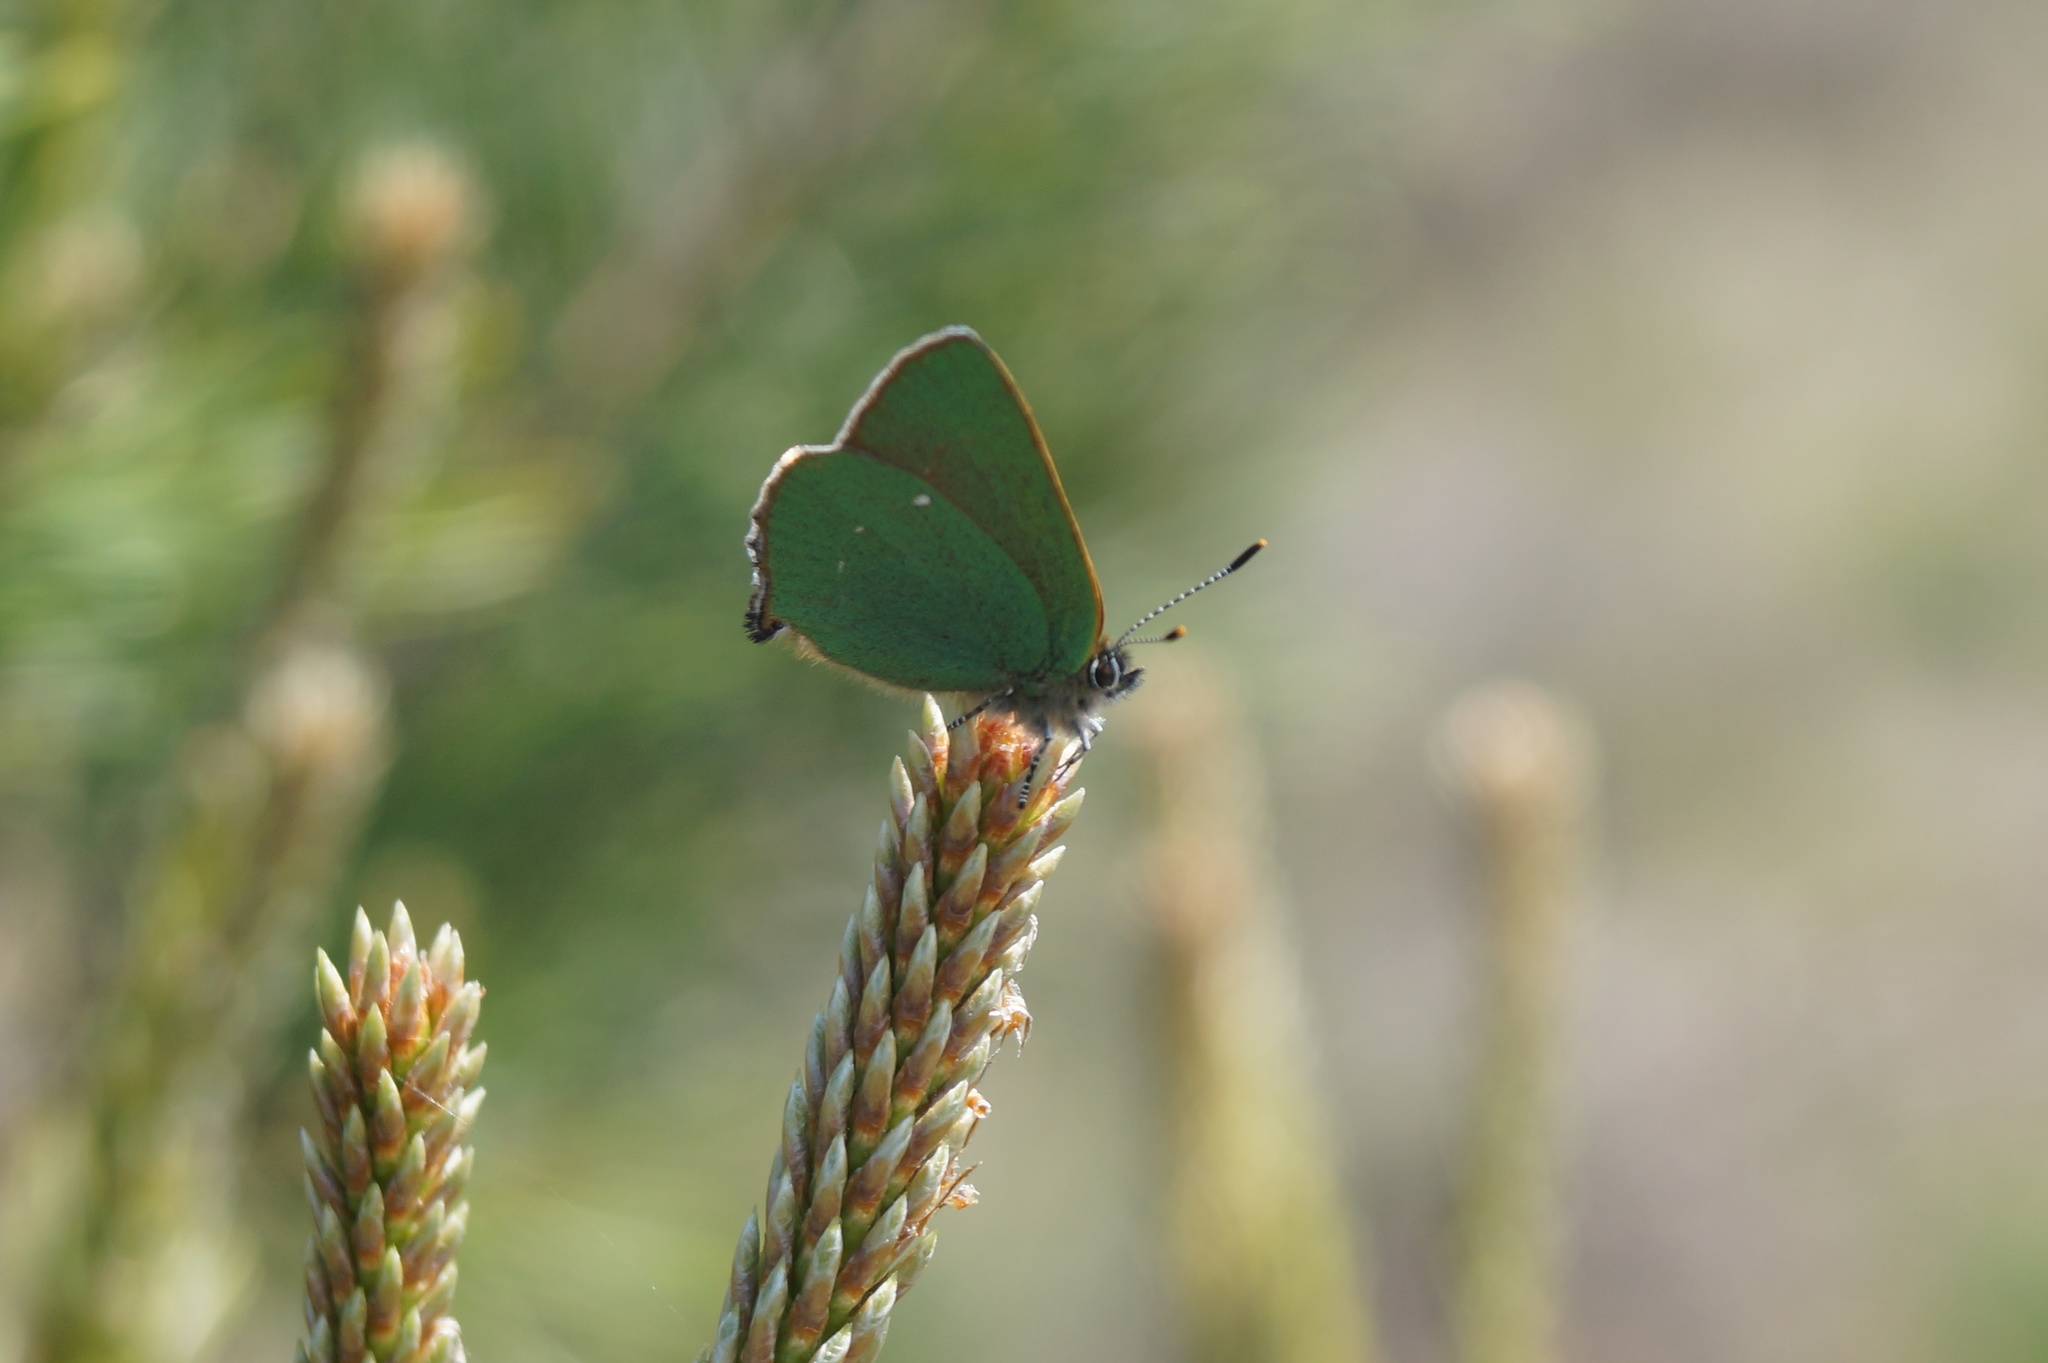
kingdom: Animalia
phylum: Arthropoda
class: Insecta
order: Lepidoptera
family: Lycaenidae
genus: Callophrys
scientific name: Callophrys rubi
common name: Green hairstreak
